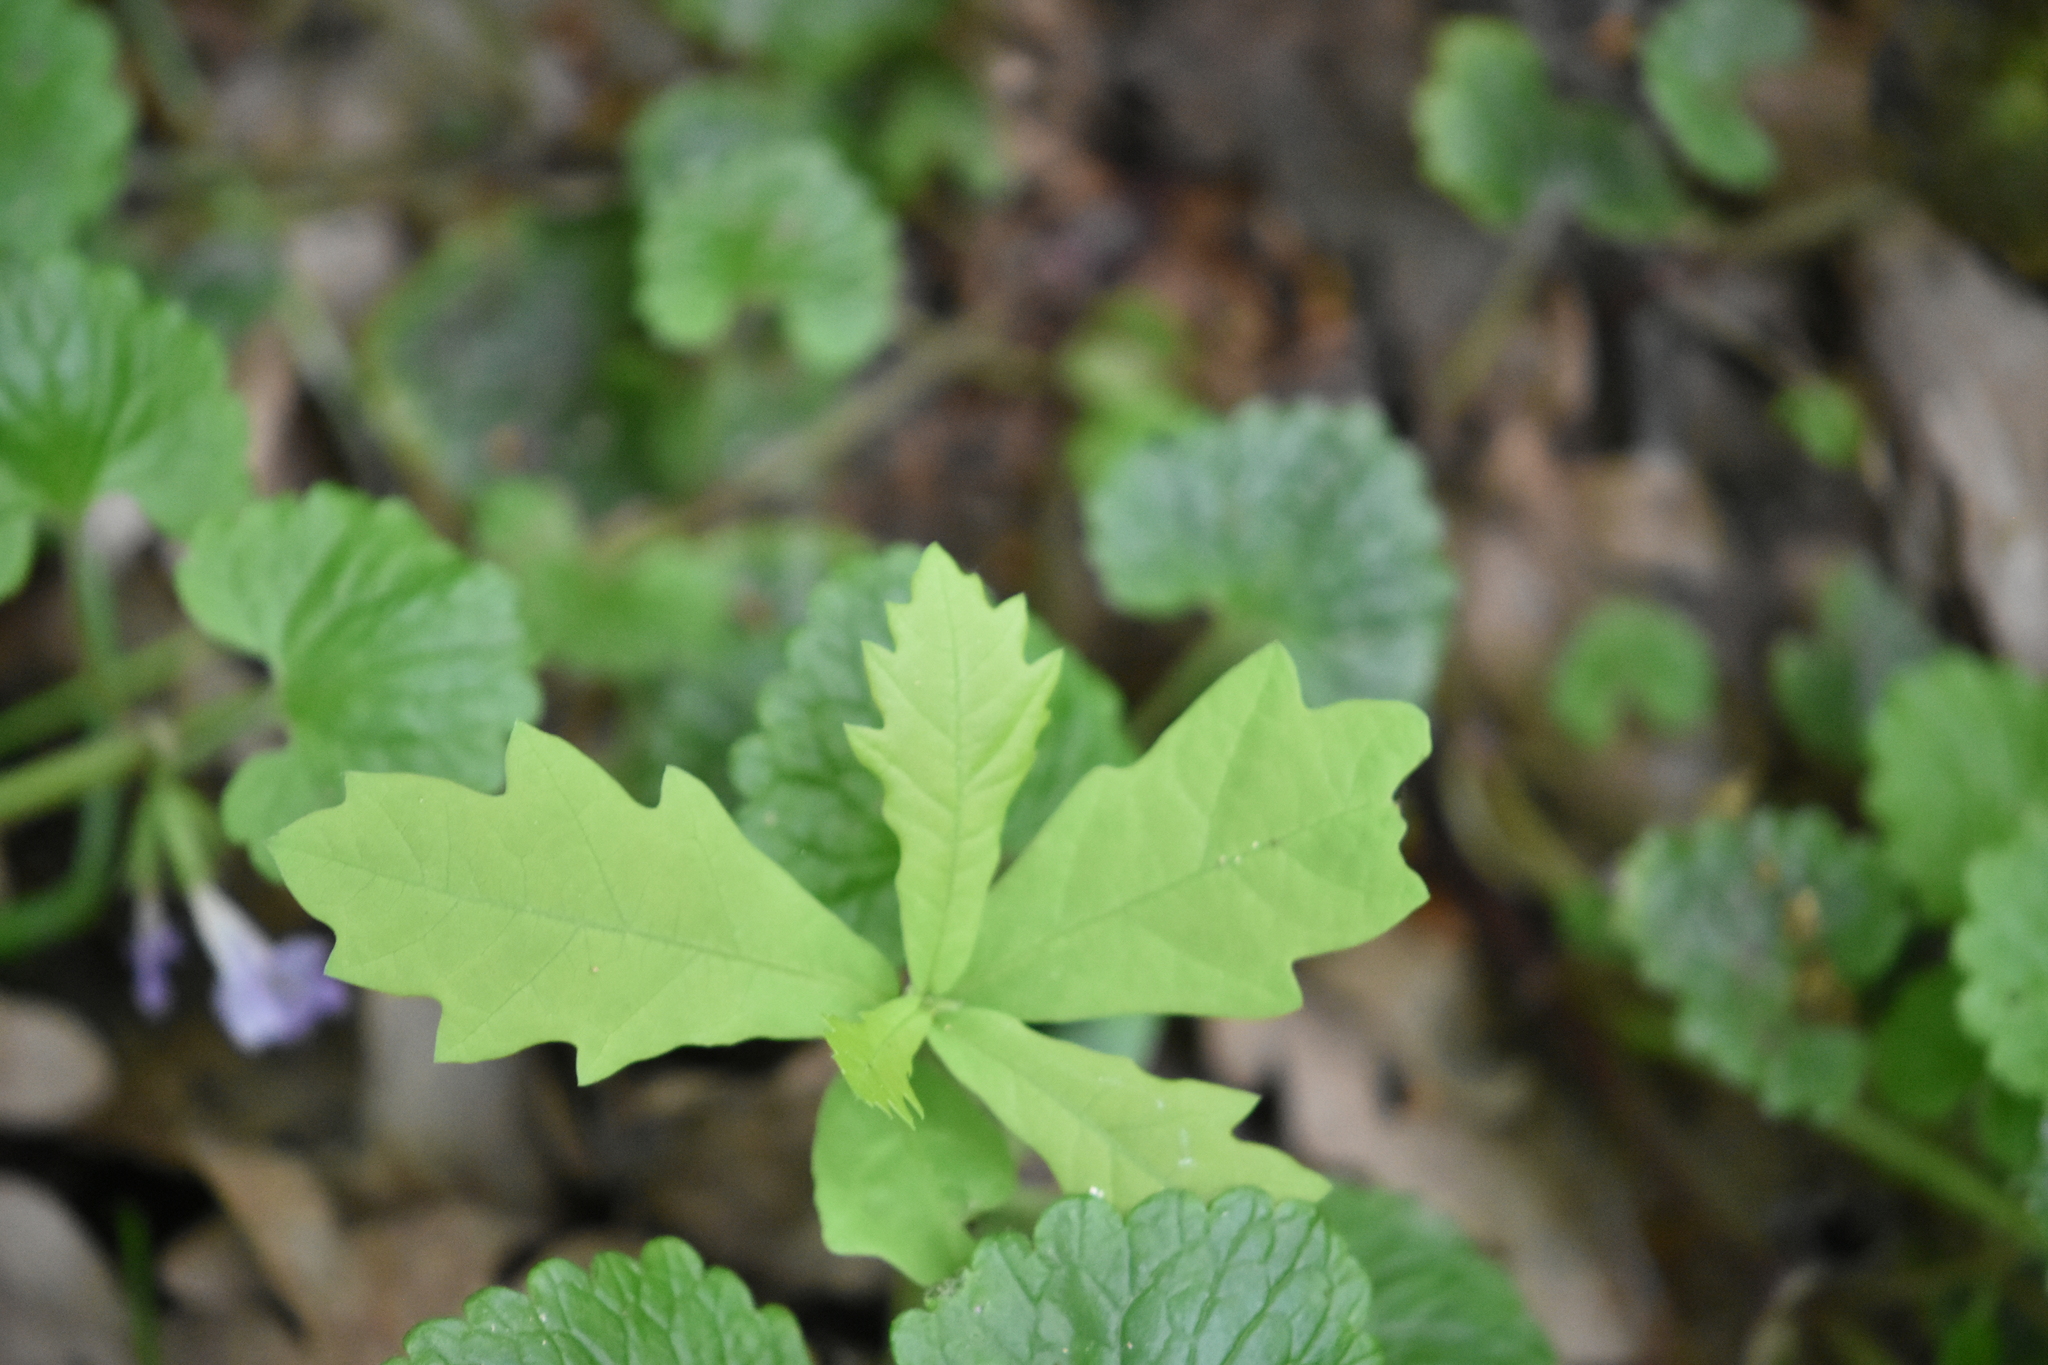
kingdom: Plantae
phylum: Tracheophyta
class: Magnoliopsida
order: Fagales
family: Fagaceae
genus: Quercus
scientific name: Quercus robur
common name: Pedunculate oak
